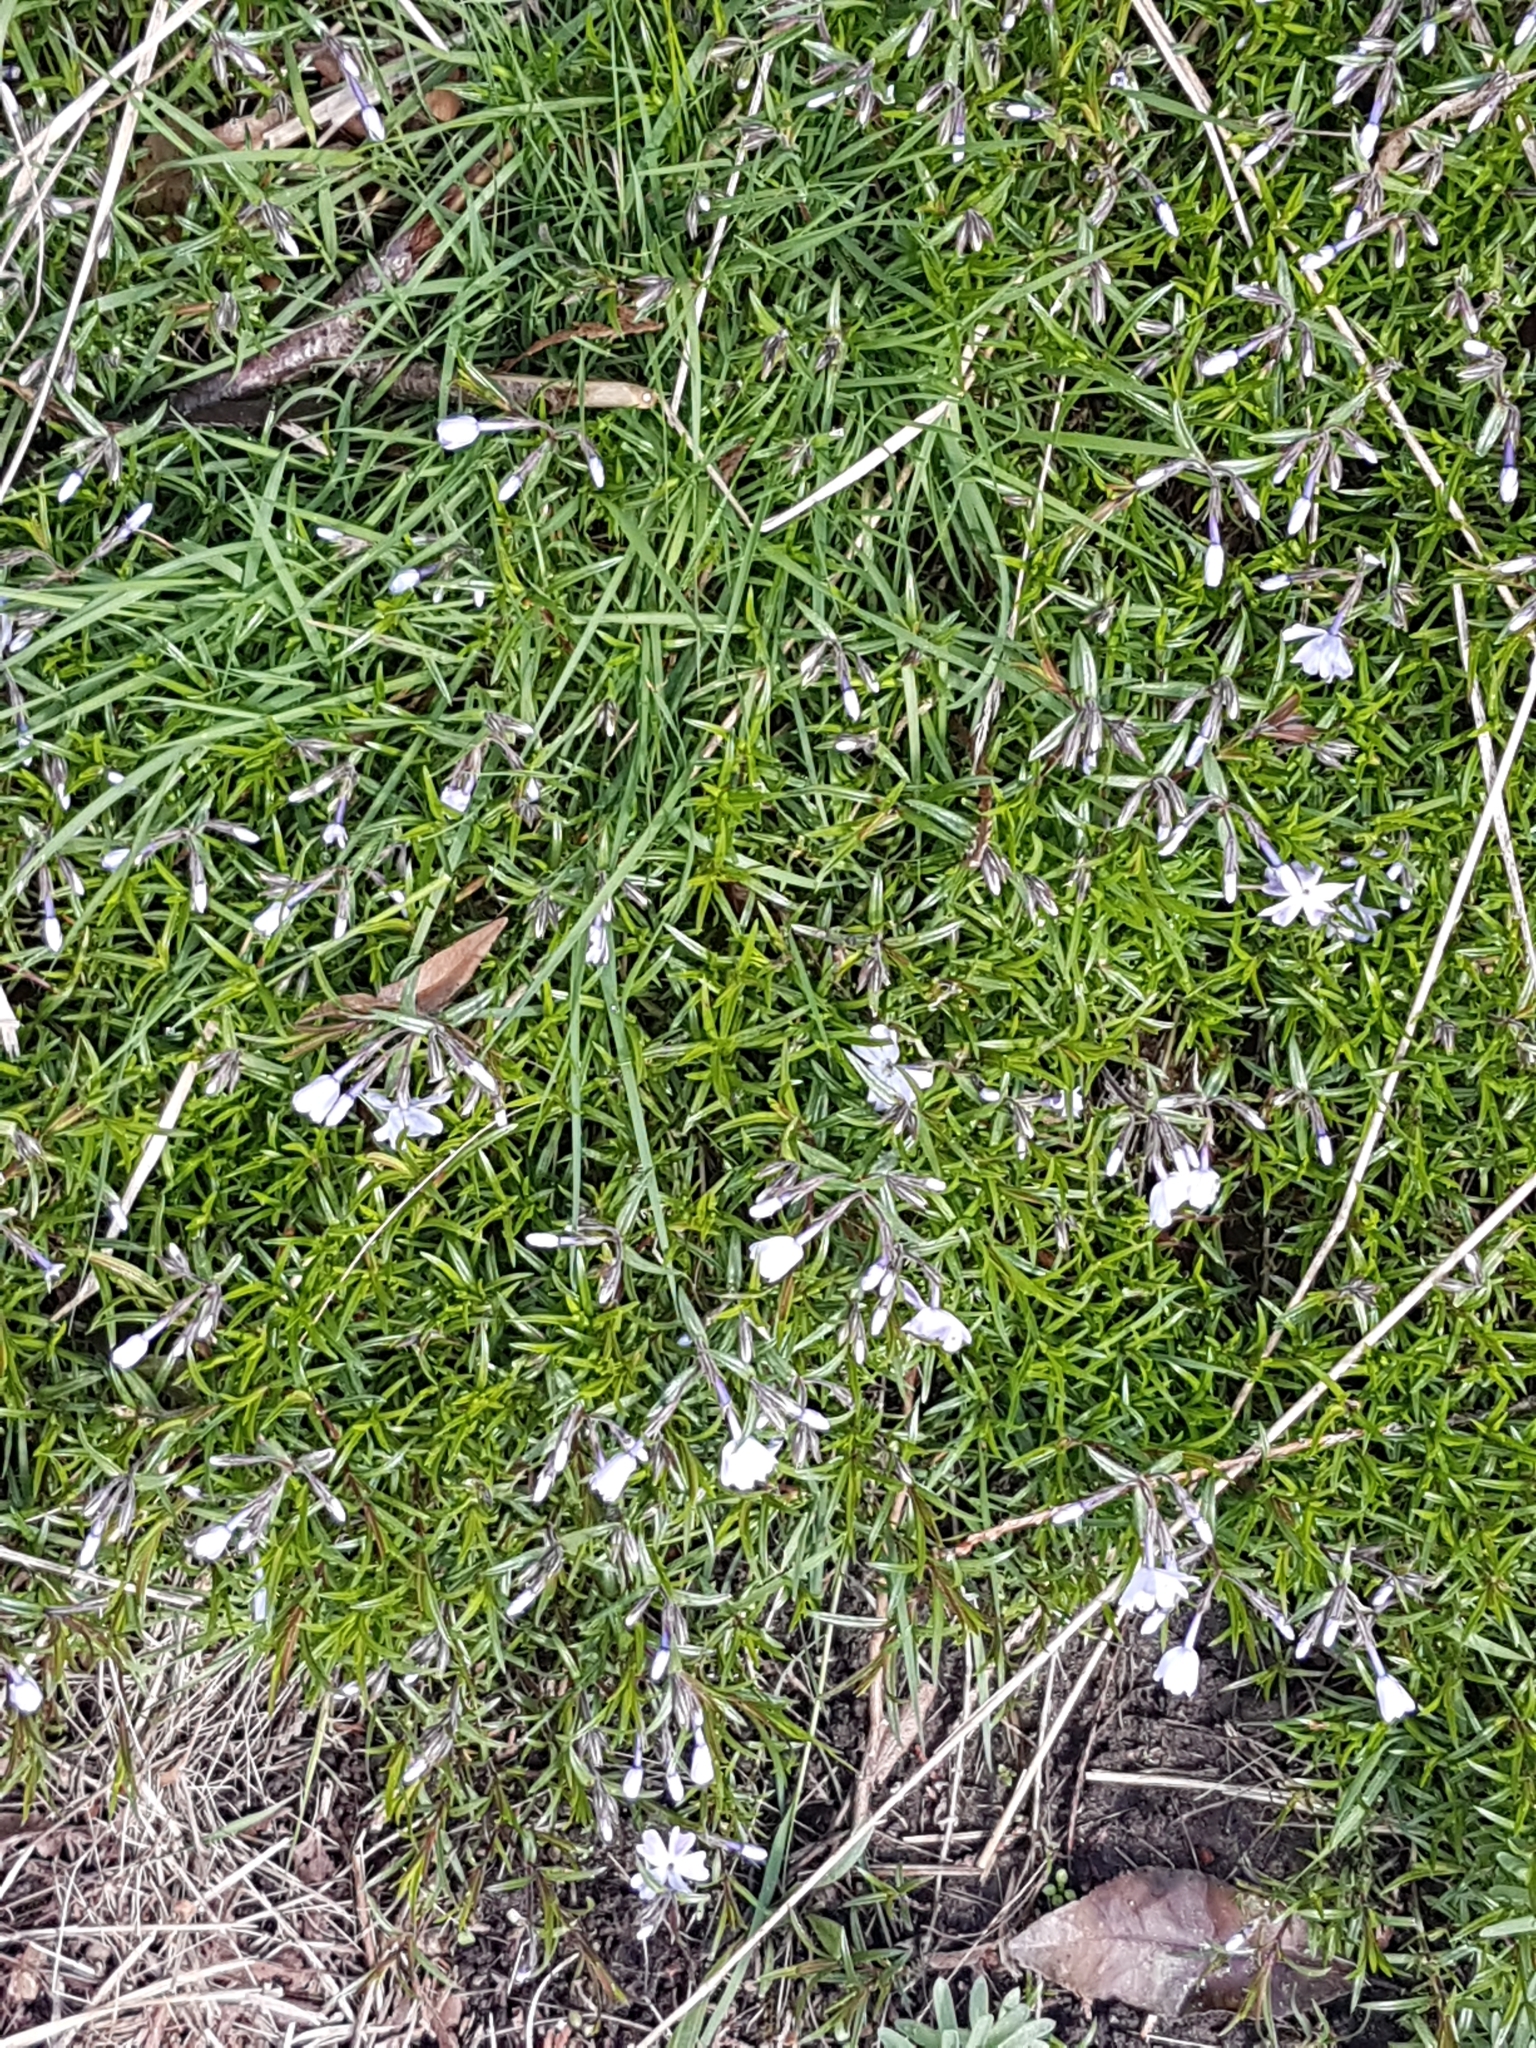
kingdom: Plantae
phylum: Tracheophyta
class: Magnoliopsida
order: Ericales
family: Polemoniaceae
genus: Phlox
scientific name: Phlox subulata
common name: Moss phlox
